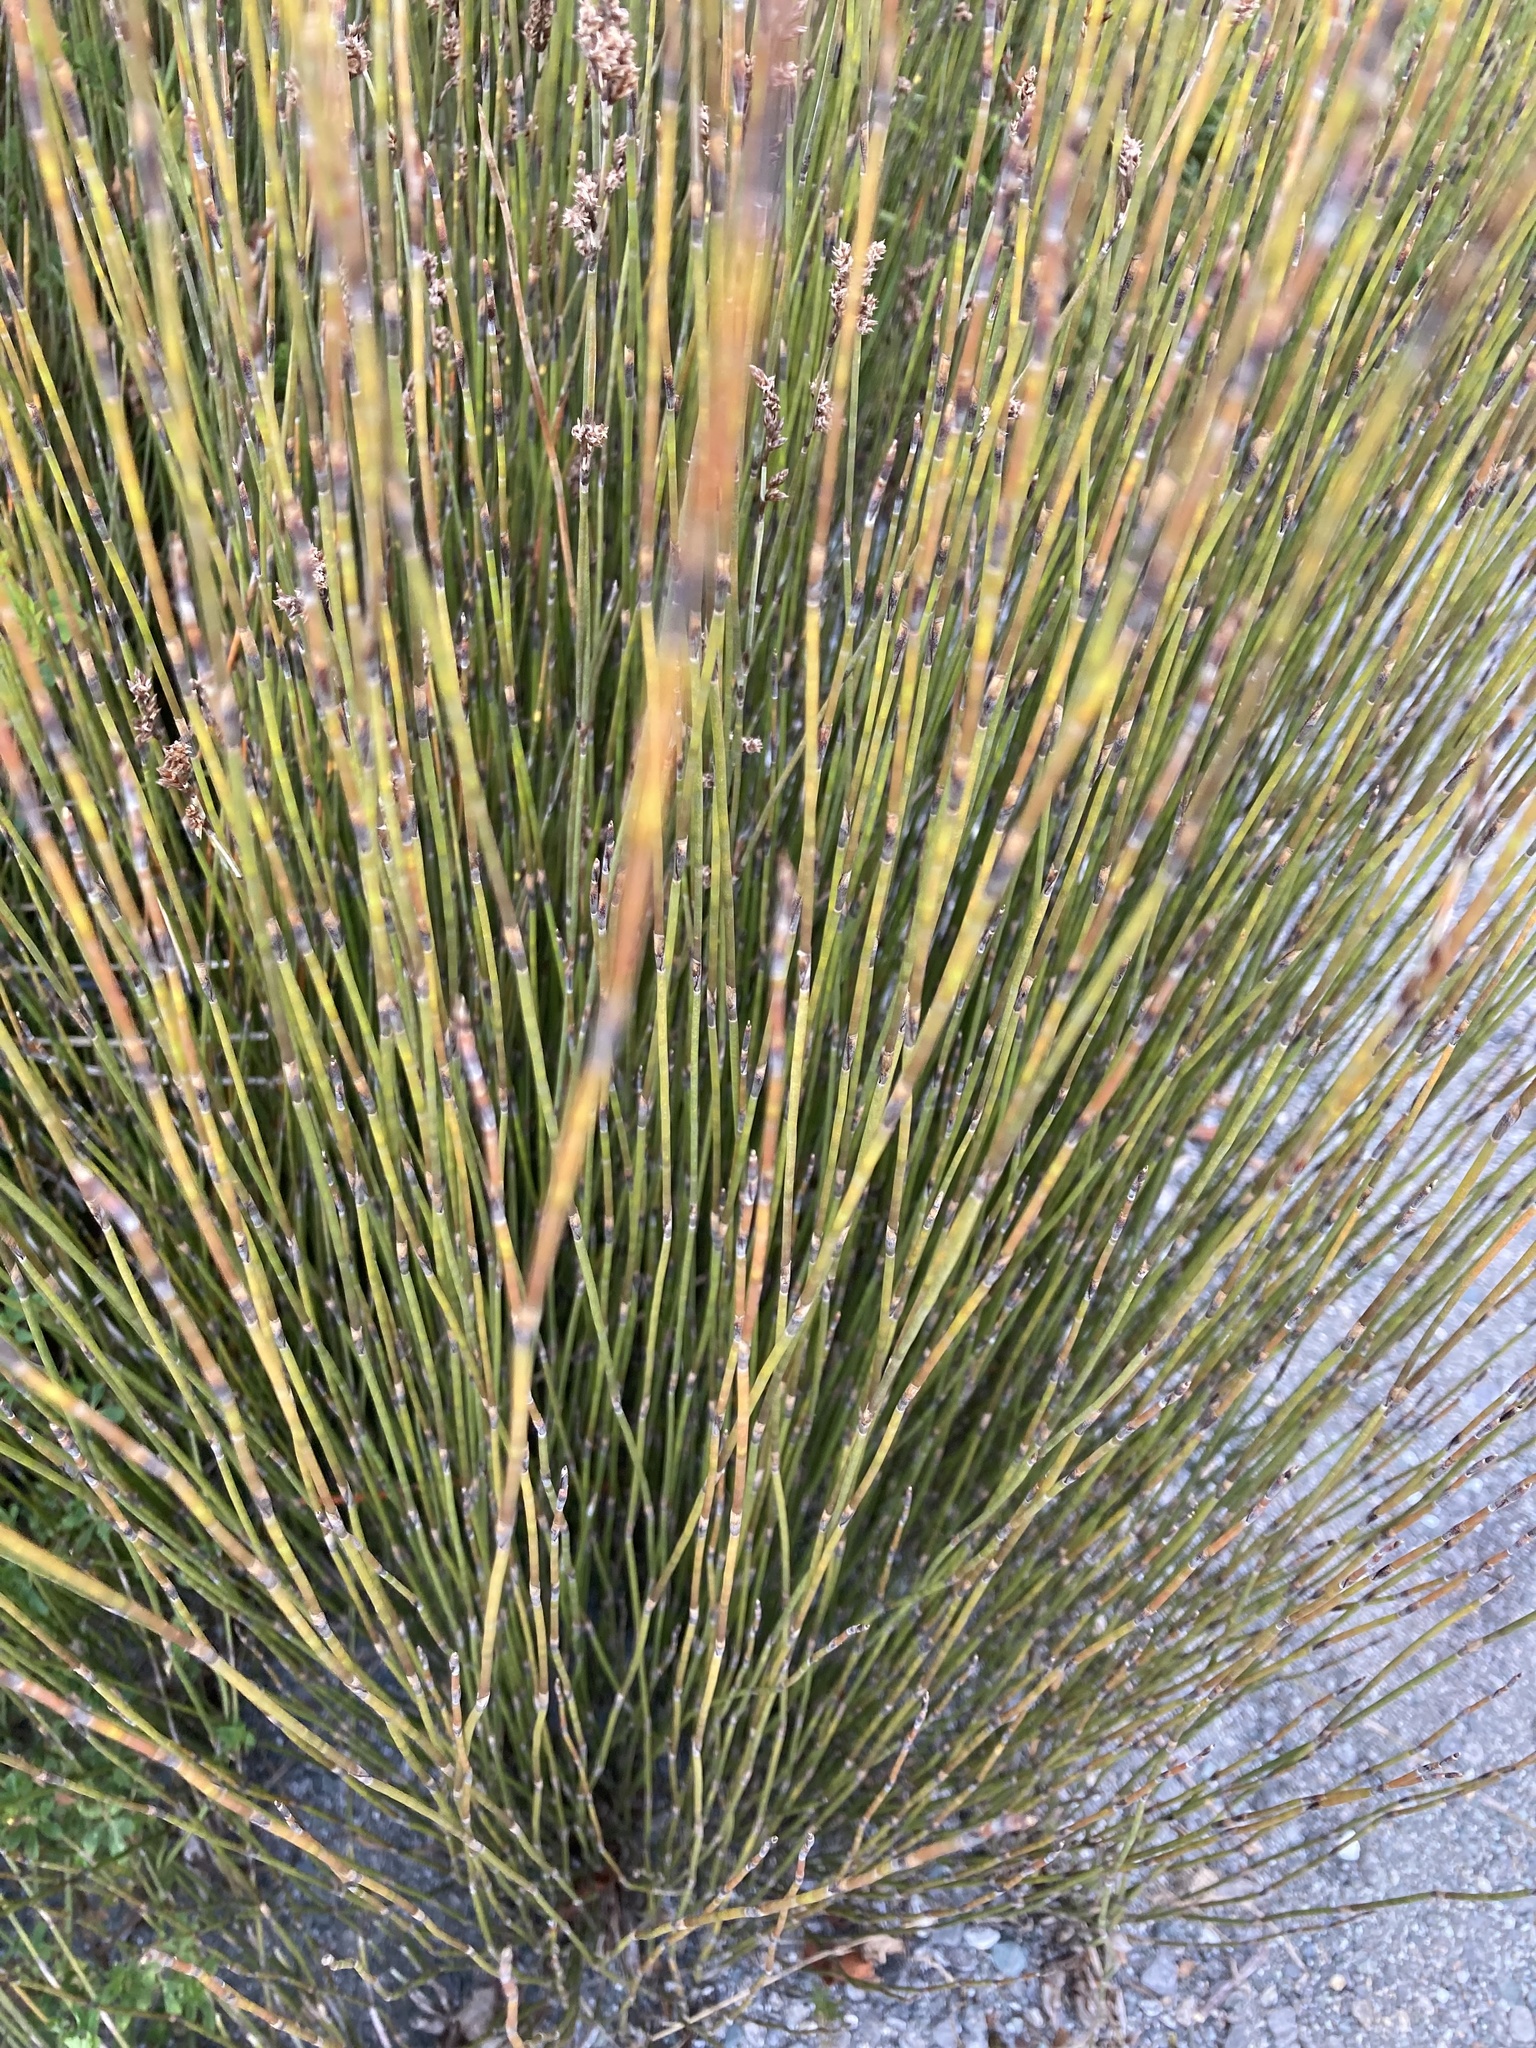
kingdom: Plantae
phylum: Tracheophyta
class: Liliopsida
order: Poales
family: Restionaceae
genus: Apodasmia
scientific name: Apodasmia similis
